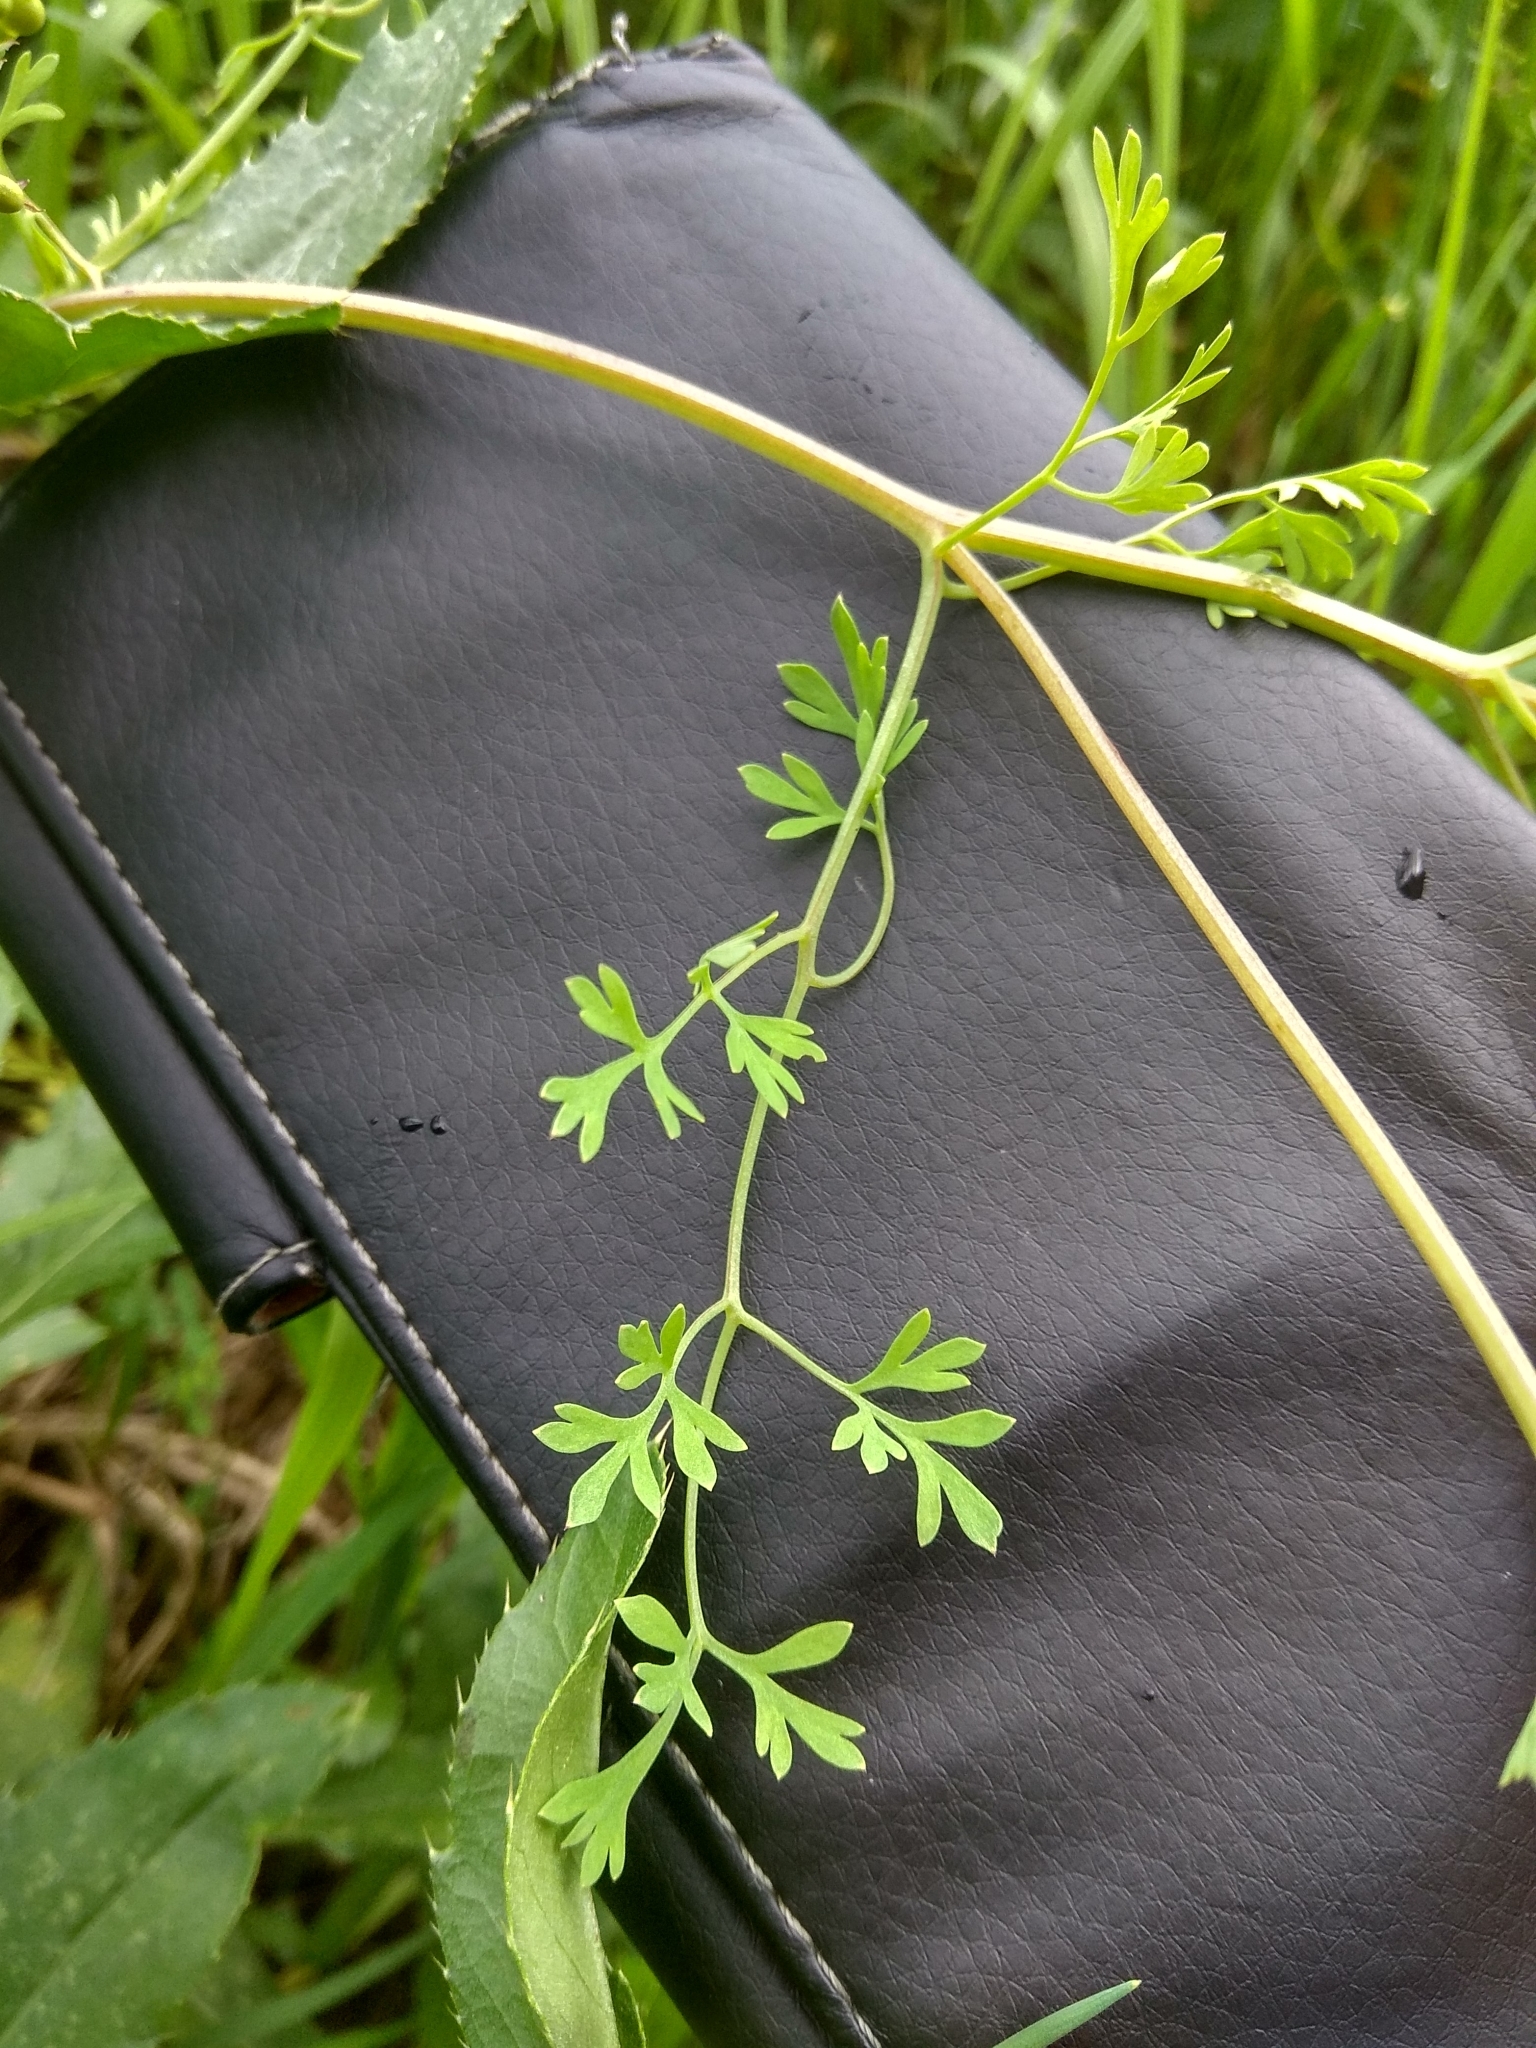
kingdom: Plantae
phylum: Tracheophyta
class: Magnoliopsida
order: Ranunculales
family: Papaveraceae
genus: Fumaria
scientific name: Fumaria officinalis
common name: Common fumitory
